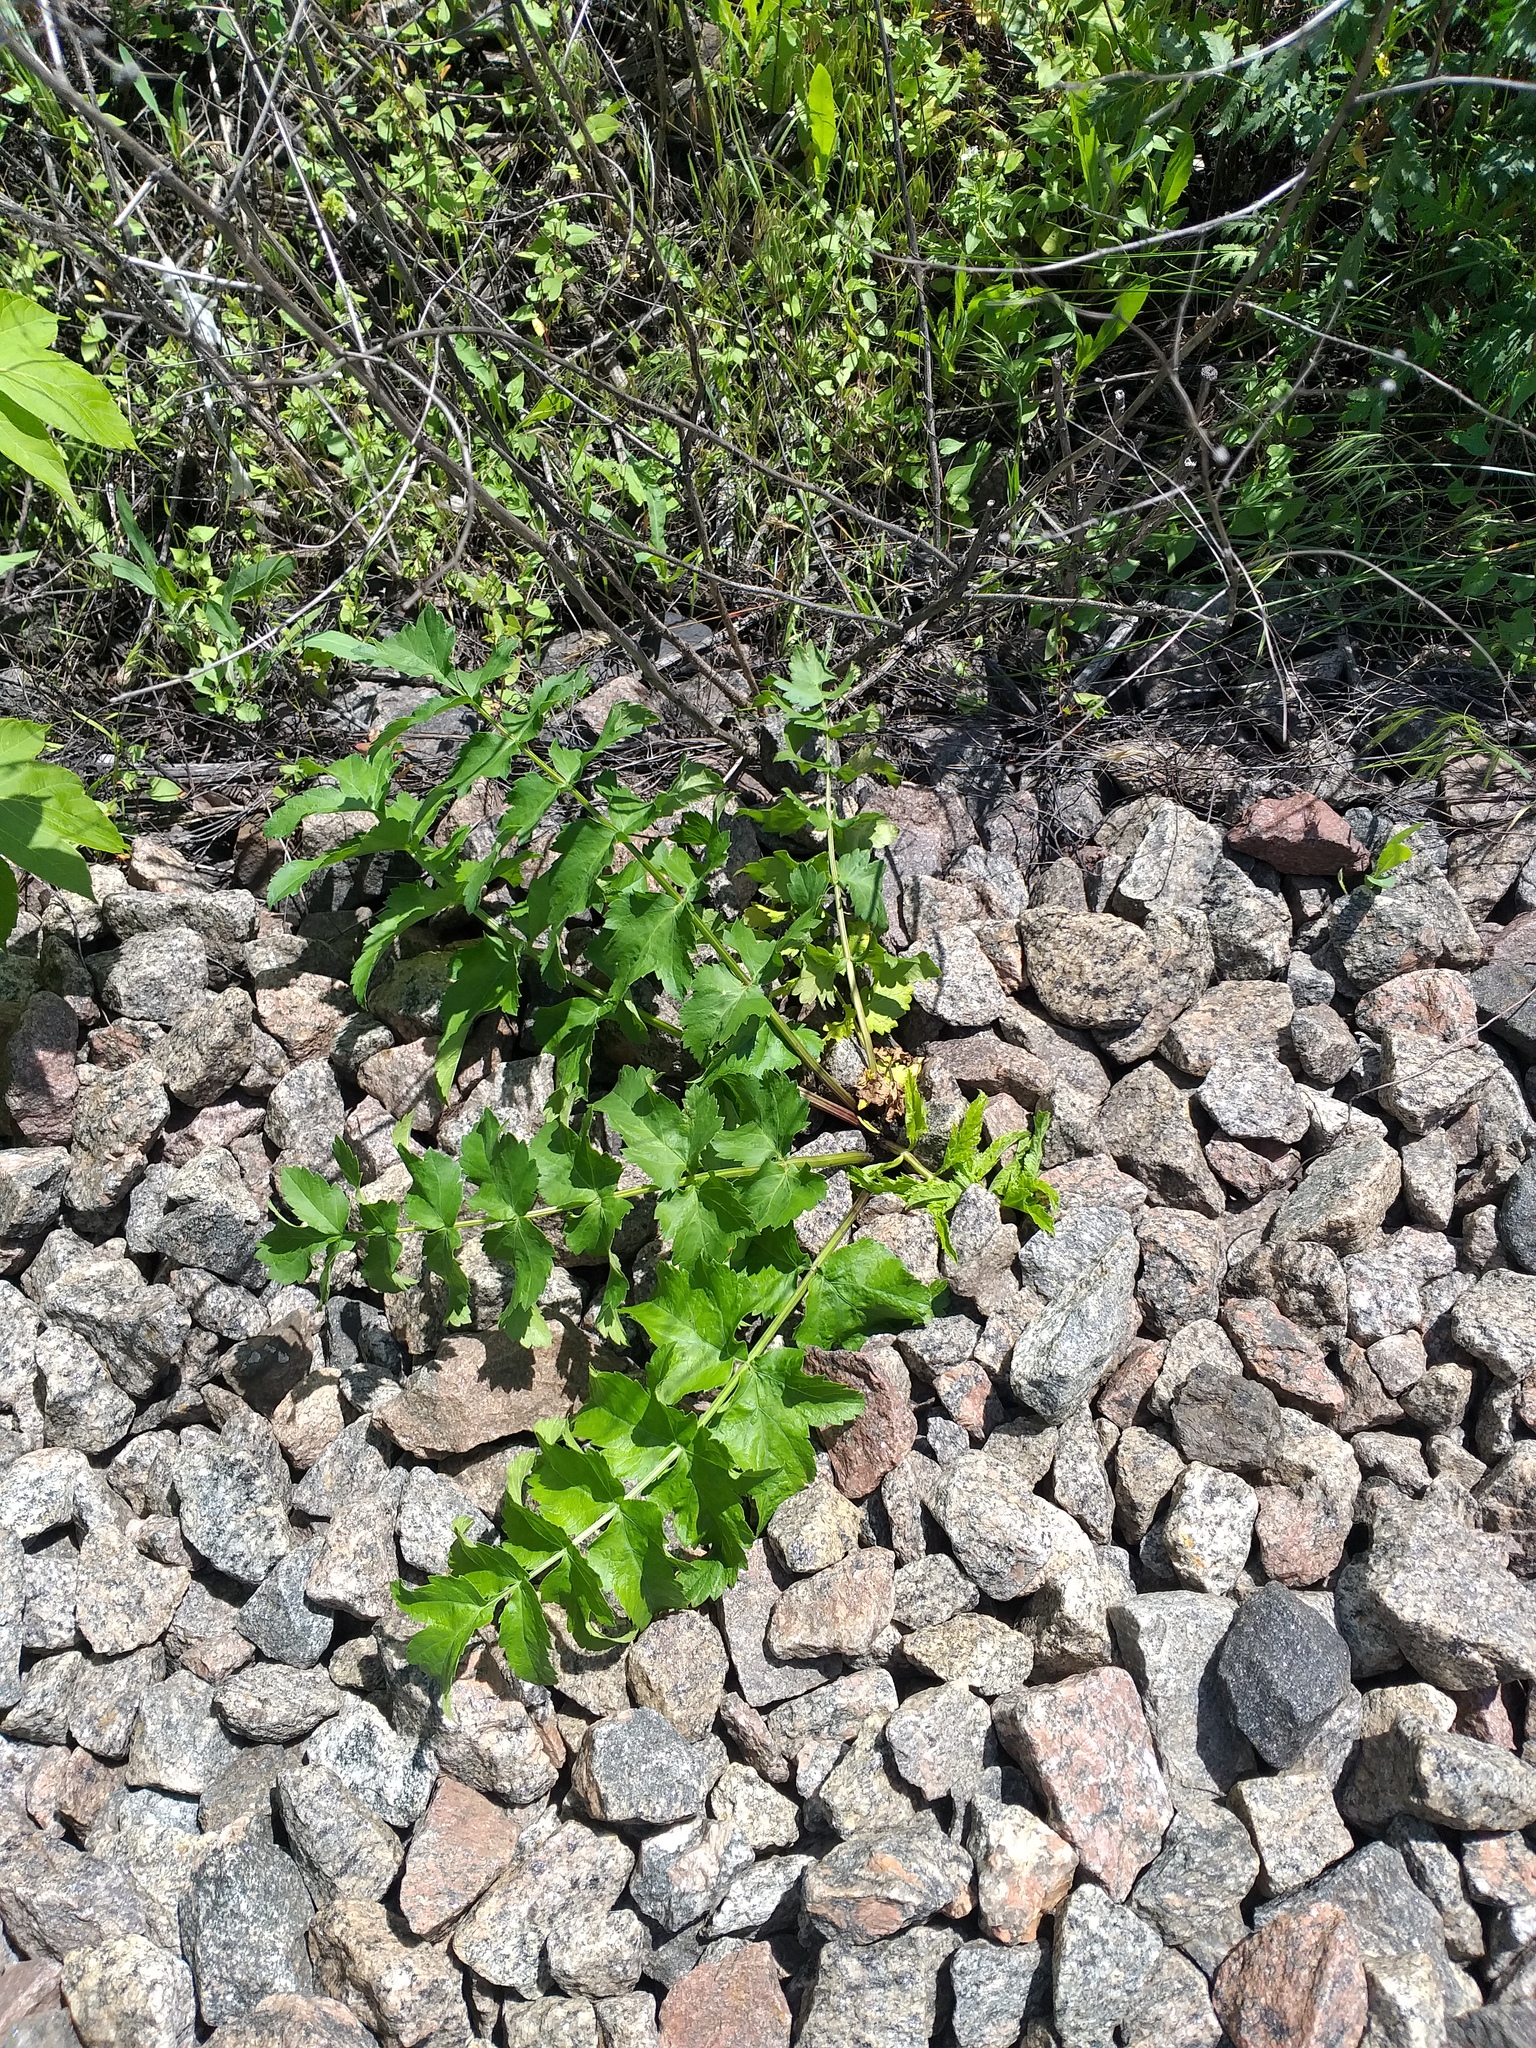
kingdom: Plantae
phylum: Tracheophyta
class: Magnoliopsida
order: Apiales
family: Apiaceae
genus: Pastinaca
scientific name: Pastinaca sativa
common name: Wild parsnip
